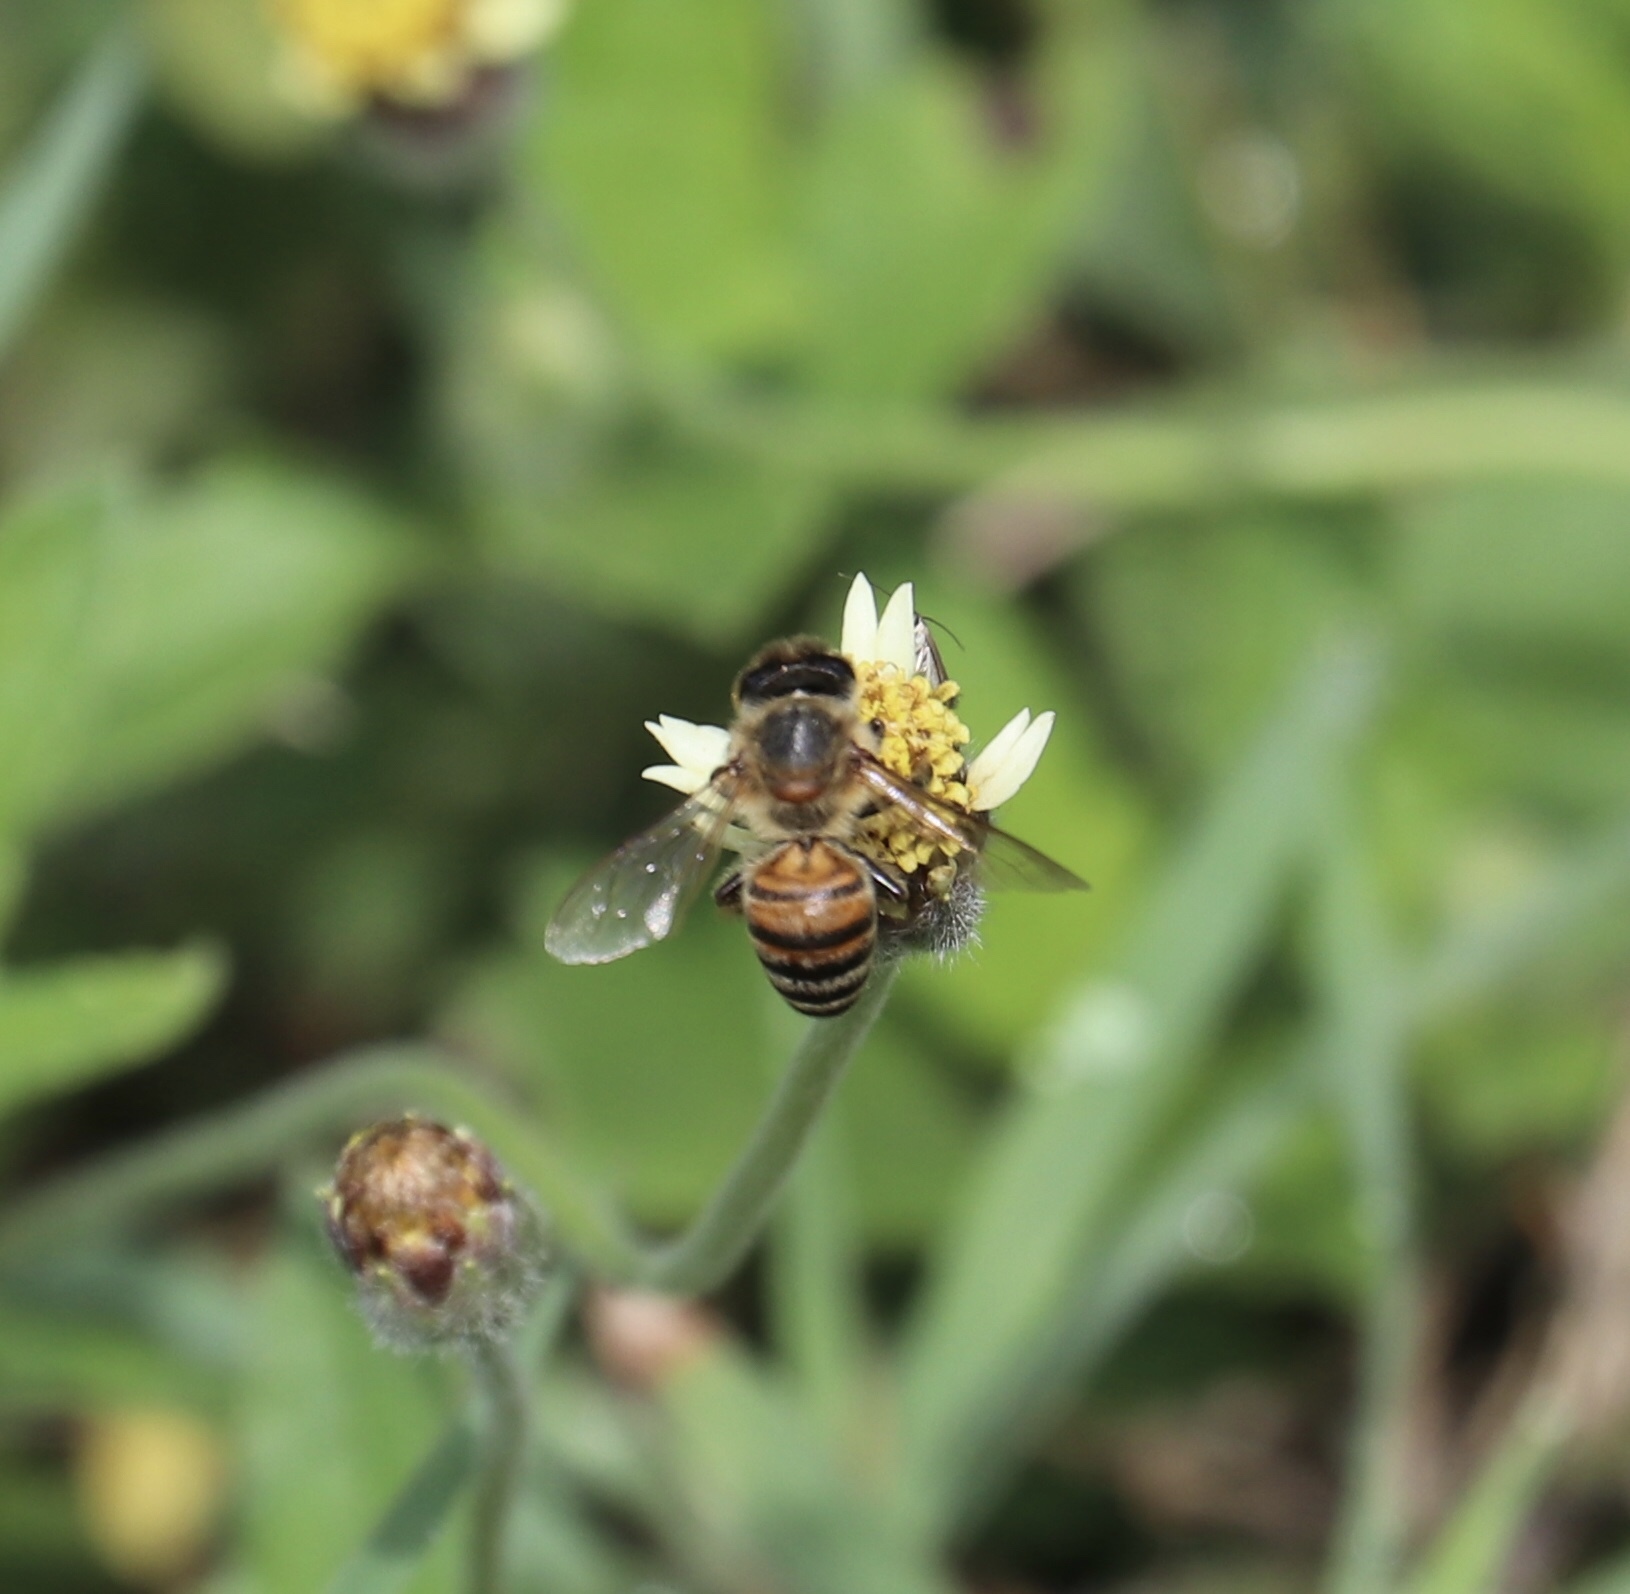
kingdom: Animalia
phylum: Arthropoda
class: Insecta
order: Hymenoptera
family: Apidae
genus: Apis
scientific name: Apis mellifera
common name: Honey bee
